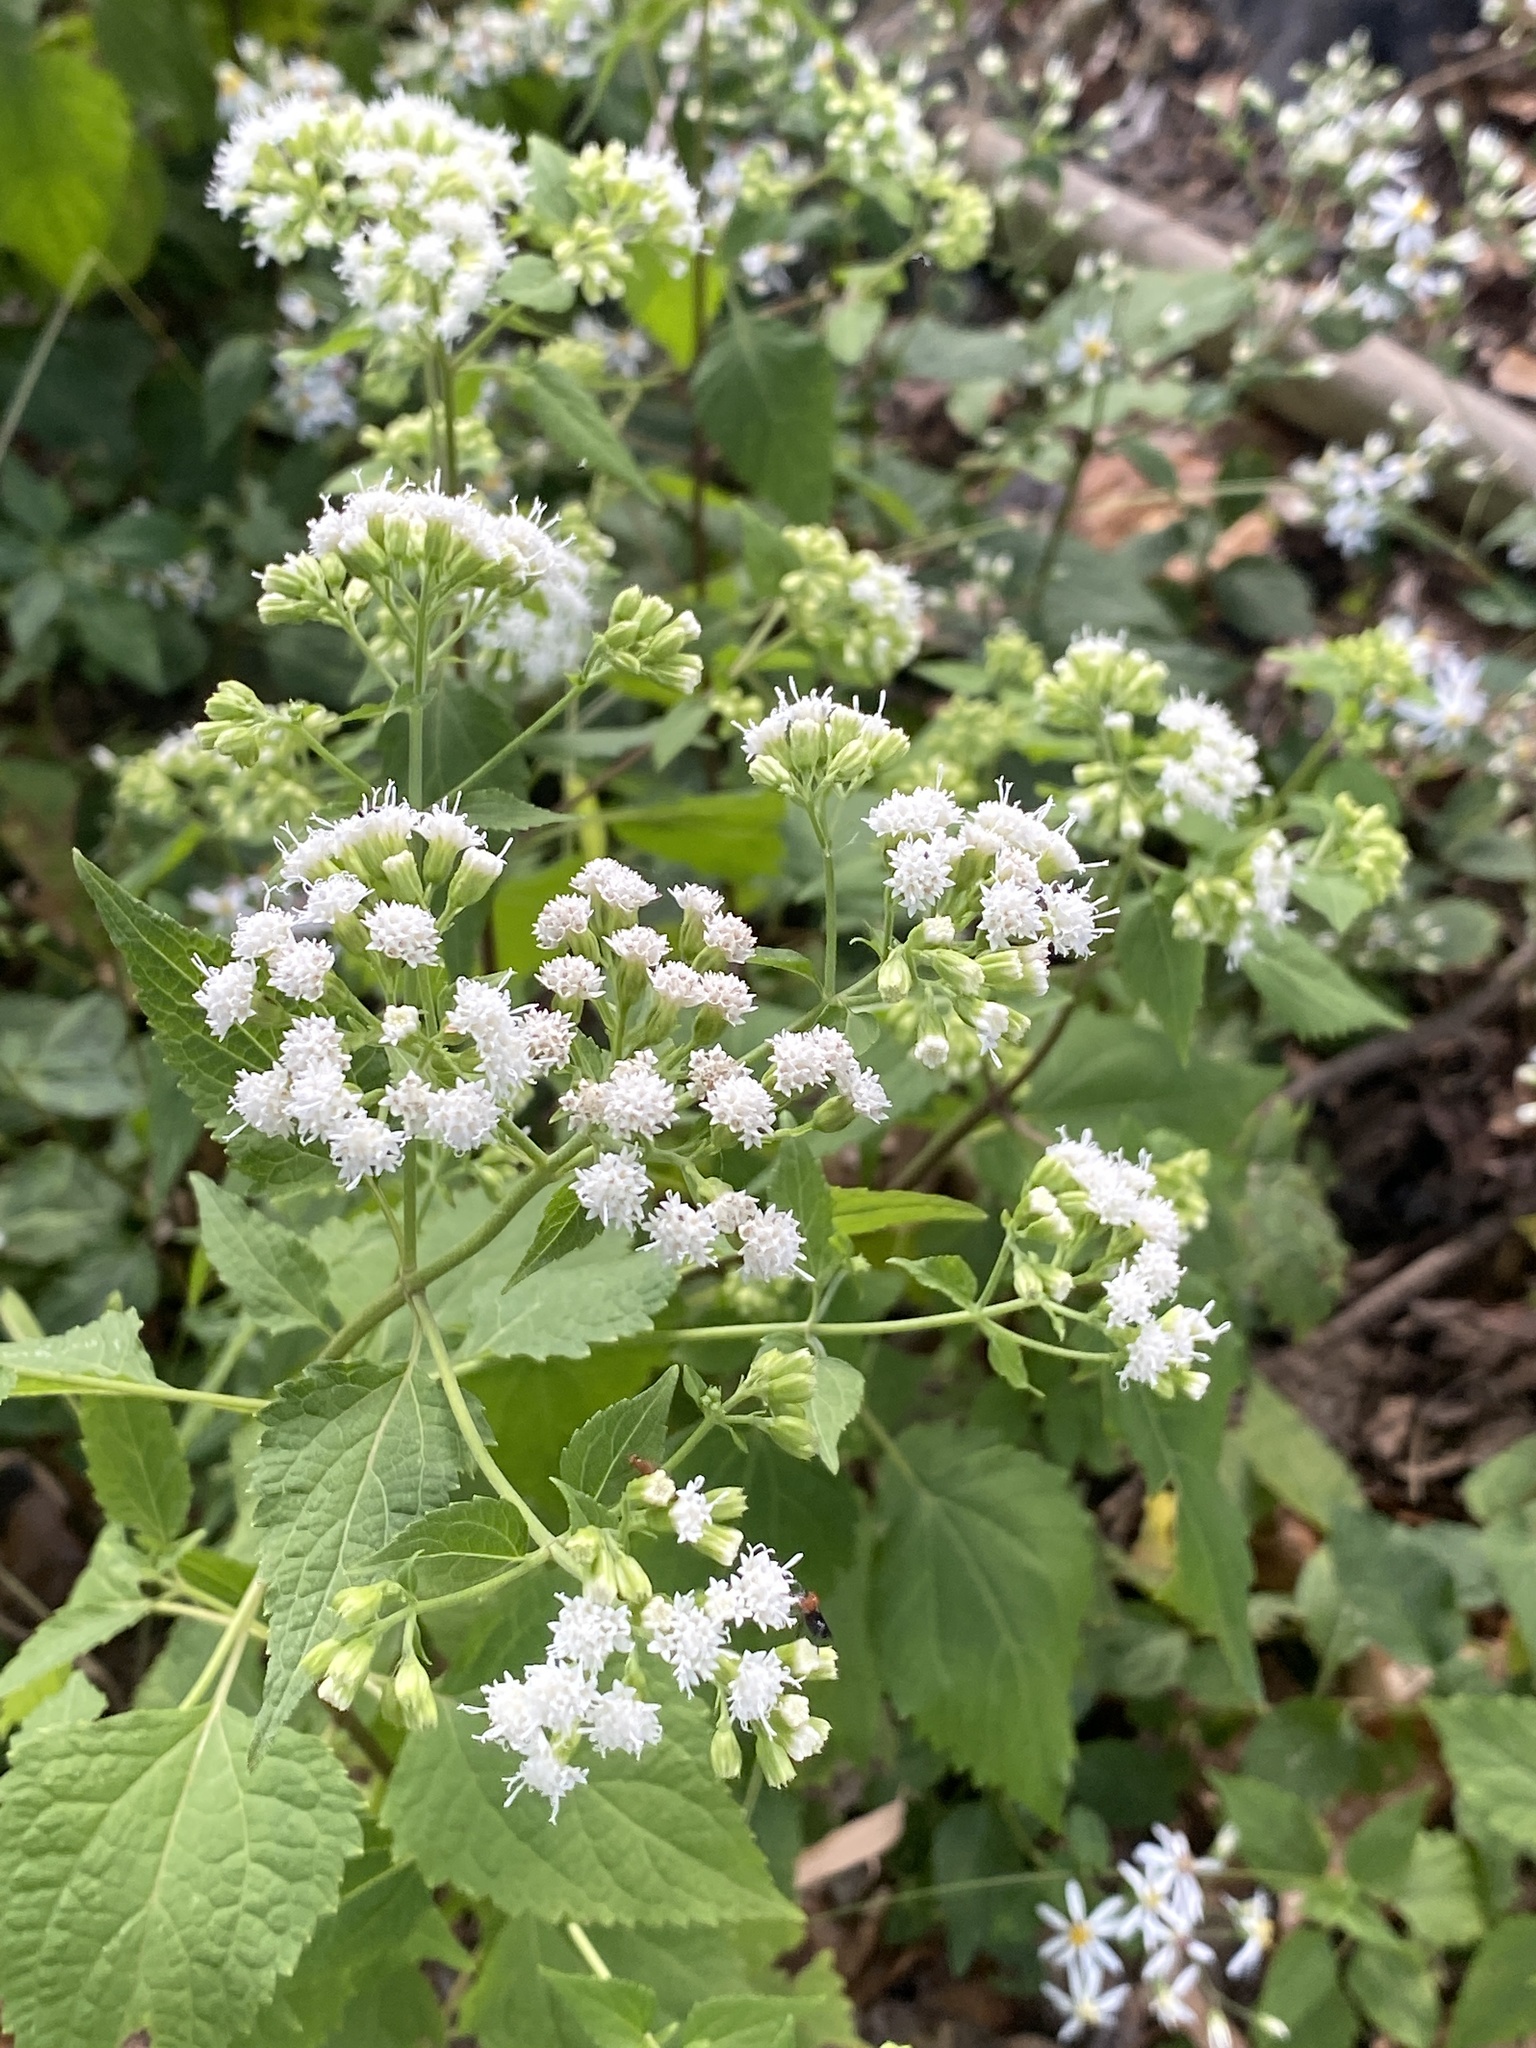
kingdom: Plantae
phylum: Tracheophyta
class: Magnoliopsida
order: Asterales
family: Asteraceae
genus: Ageratina
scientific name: Ageratina altissima
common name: White snakeroot
